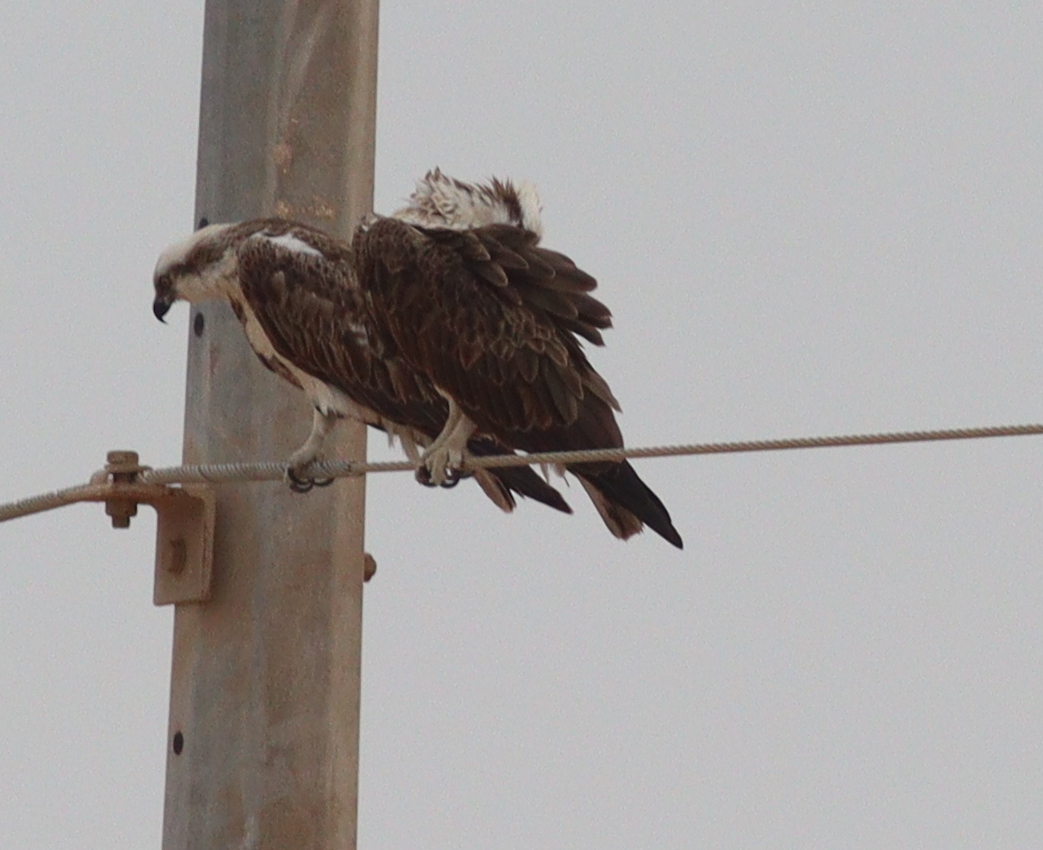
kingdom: Animalia
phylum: Chordata
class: Aves
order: Accipitriformes
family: Pandionidae
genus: Pandion
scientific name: Pandion haliaetus
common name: Osprey
